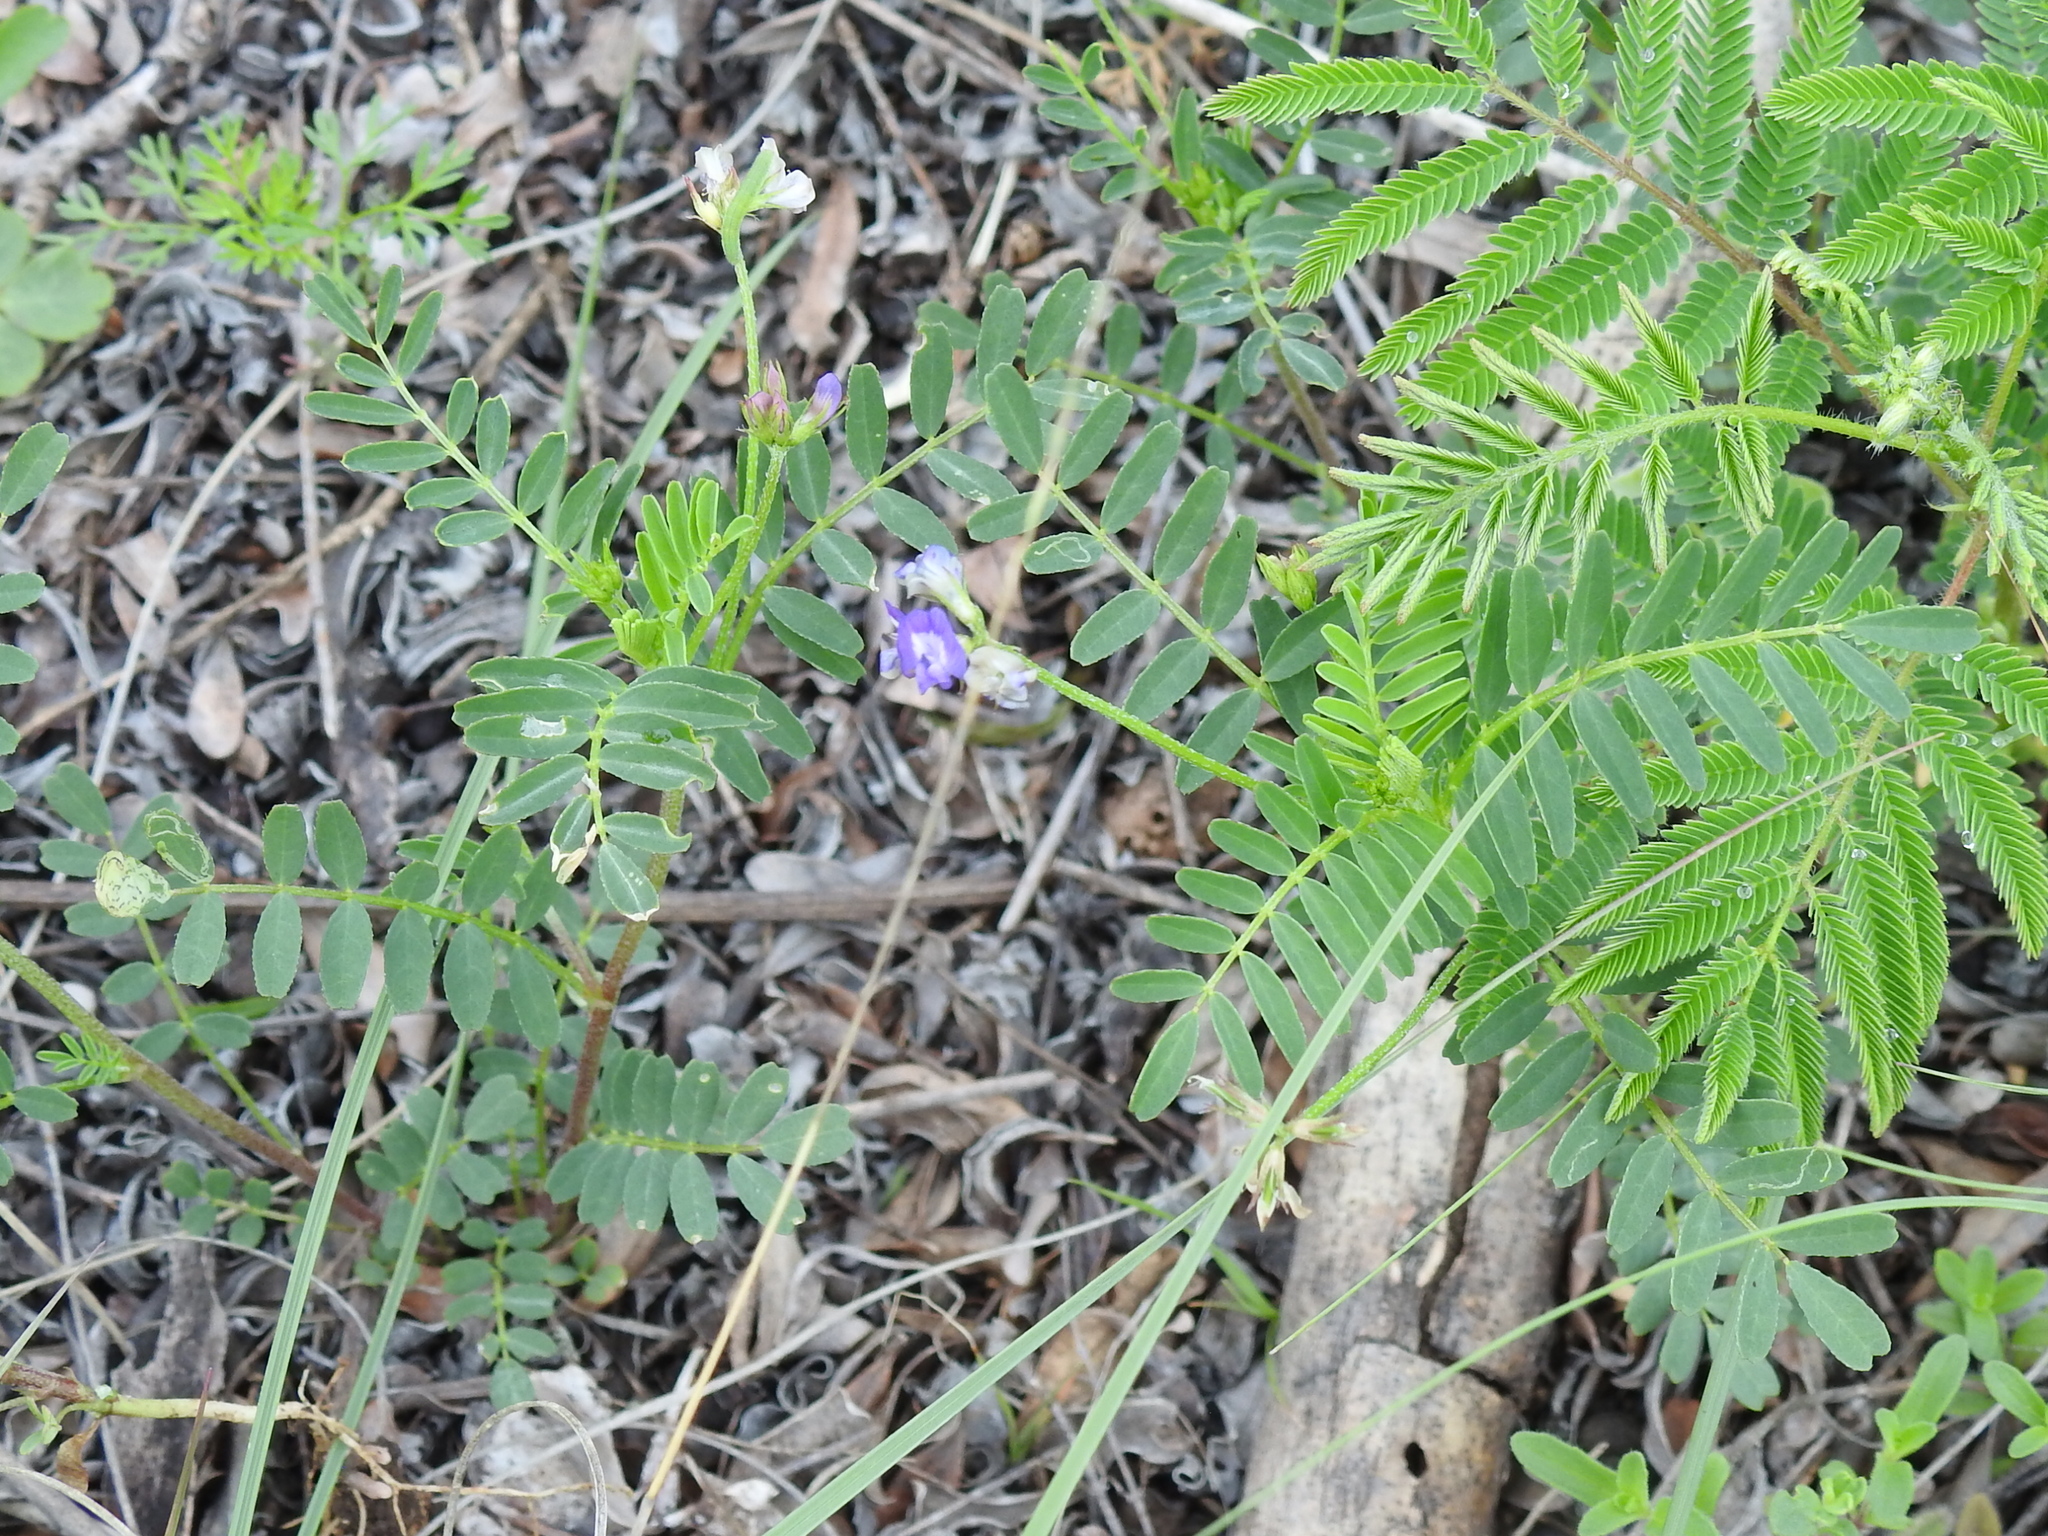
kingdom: Plantae
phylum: Tracheophyta
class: Magnoliopsida
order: Fabales
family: Fabaceae
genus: Astragalus
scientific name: Astragalus nuttallianus
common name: Smallflowered milkvetch
